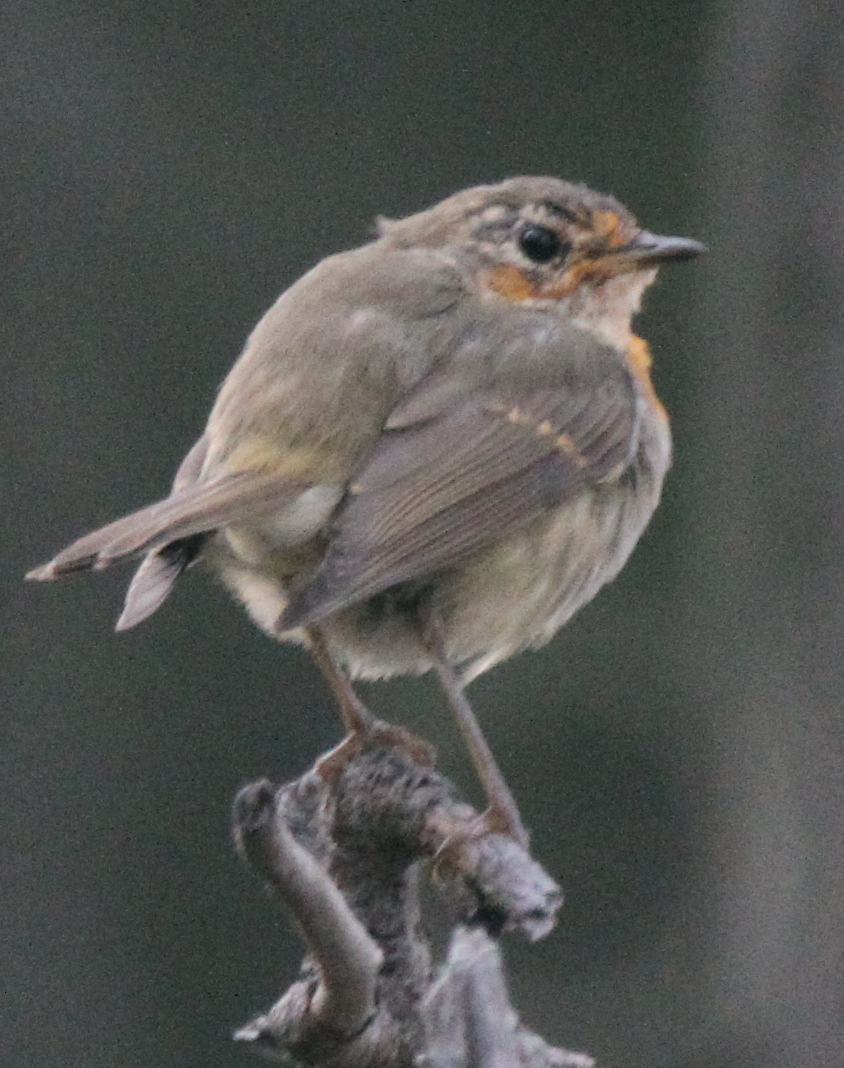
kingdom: Animalia
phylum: Chordata
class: Aves
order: Passeriformes
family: Muscicapidae
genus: Erithacus
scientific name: Erithacus rubecula
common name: European robin
